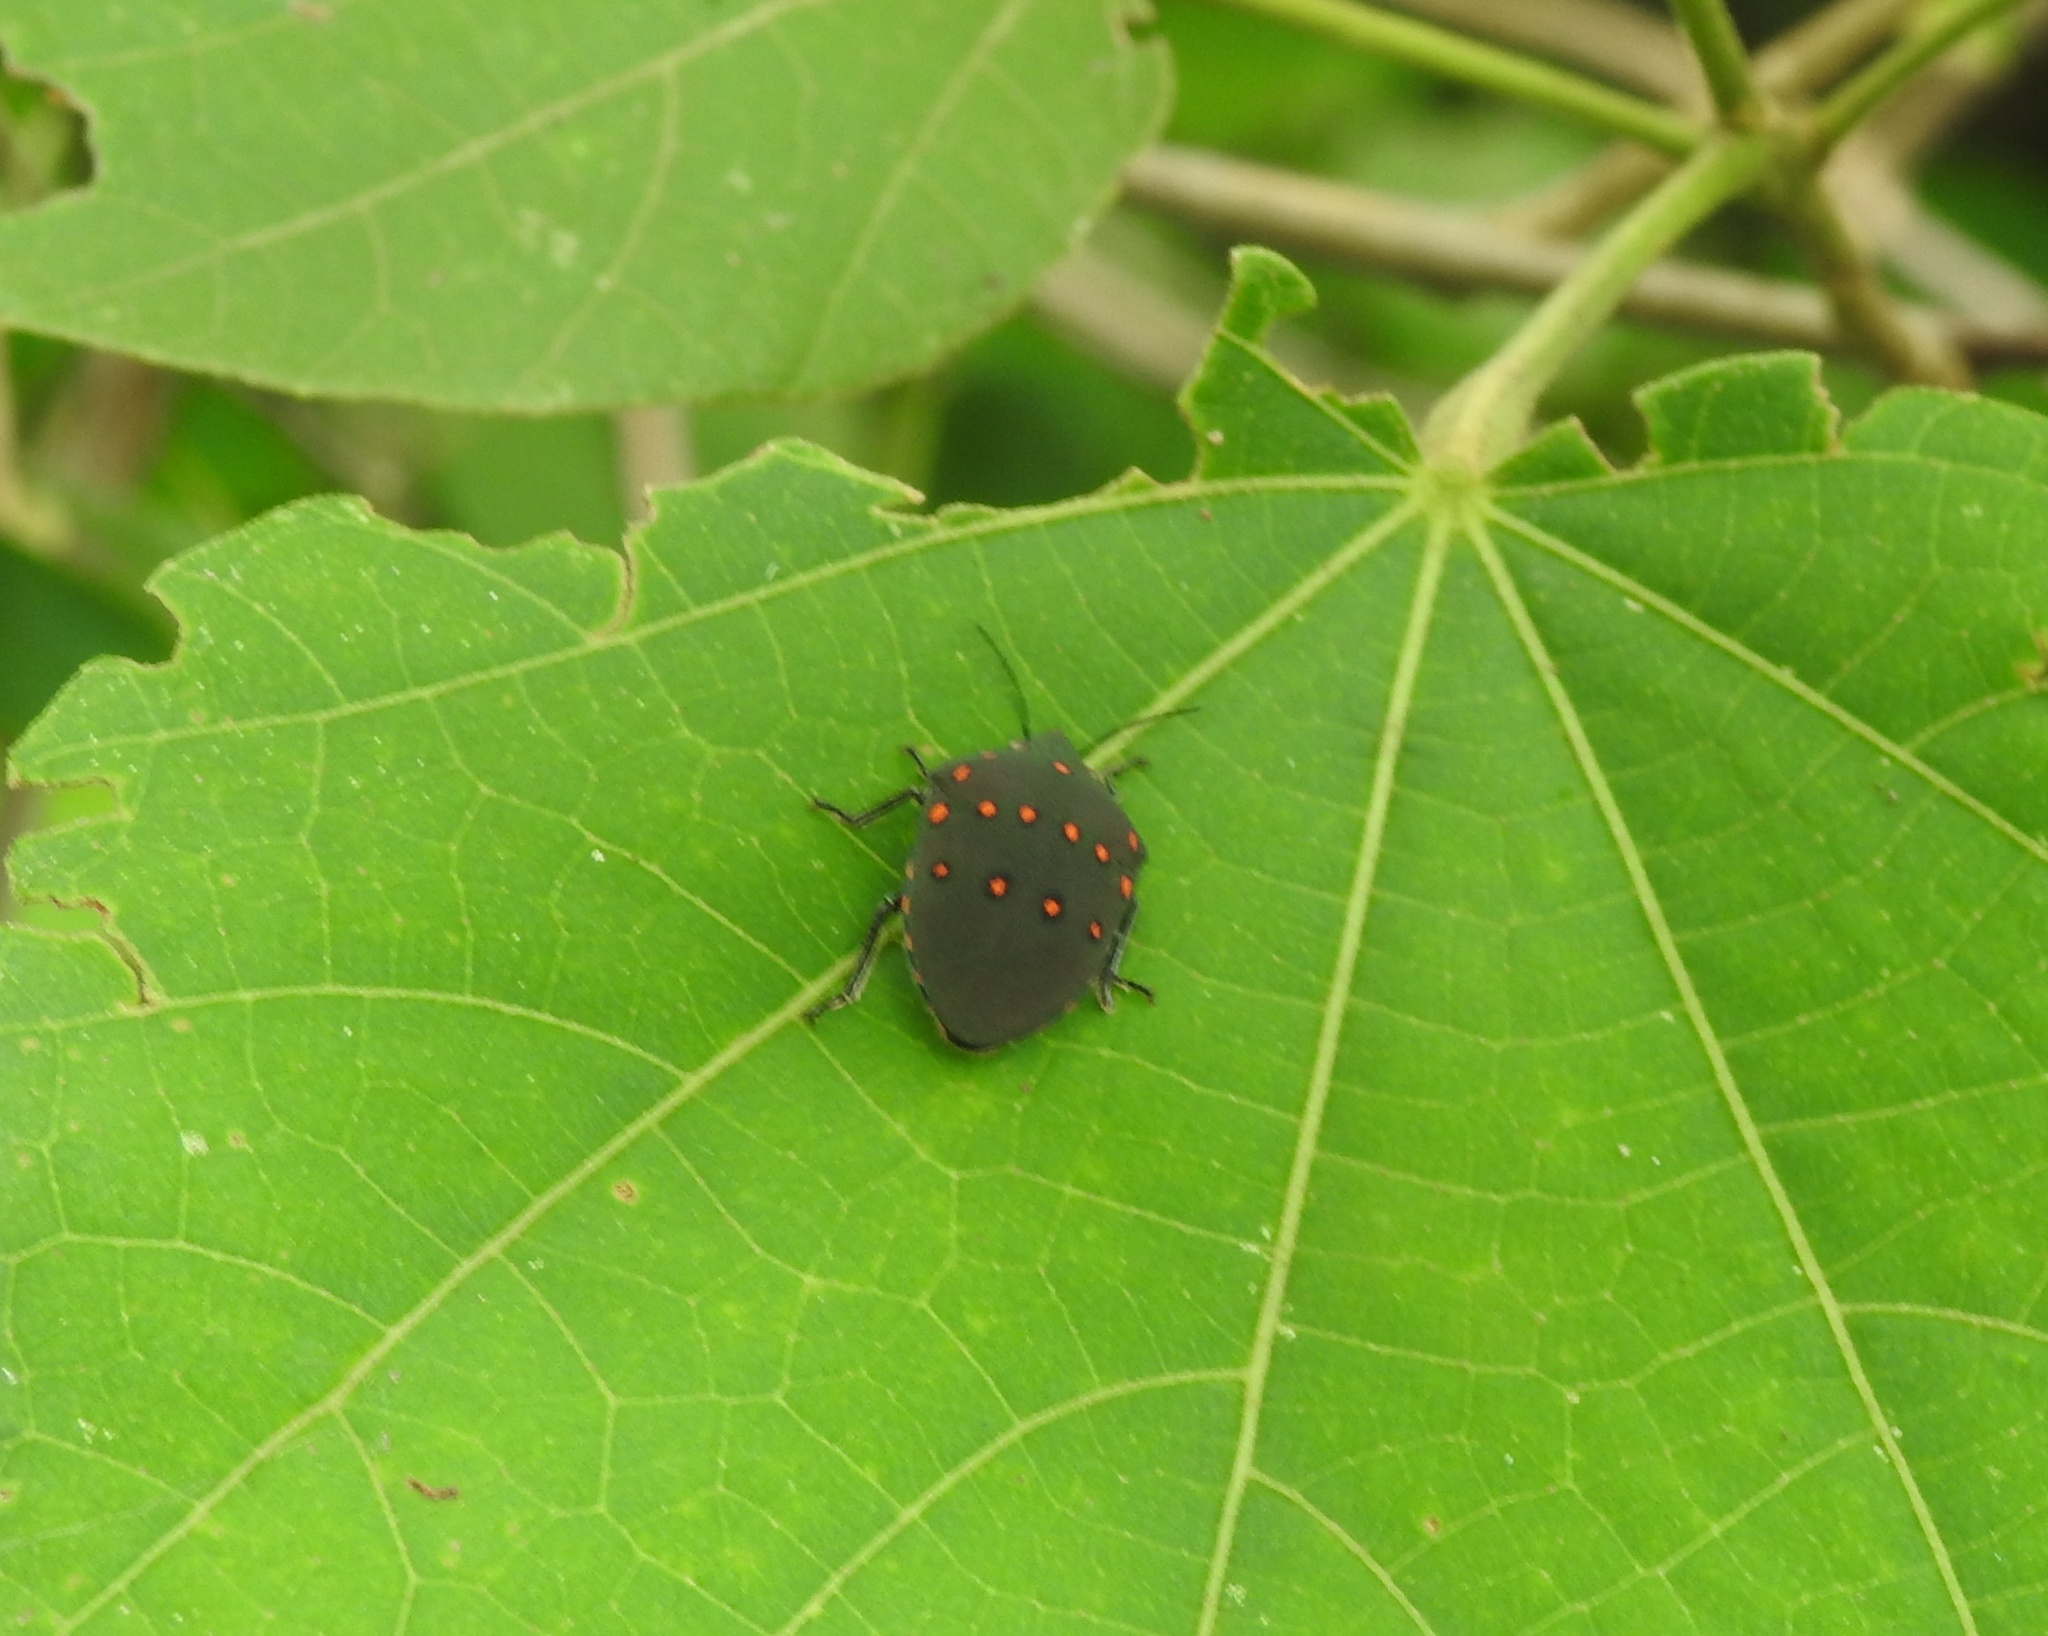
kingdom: Animalia
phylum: Arthropoda
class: Insecta
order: Hemiptera
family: Scutelleridae
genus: Solenosthedium
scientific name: Solenosthedium
